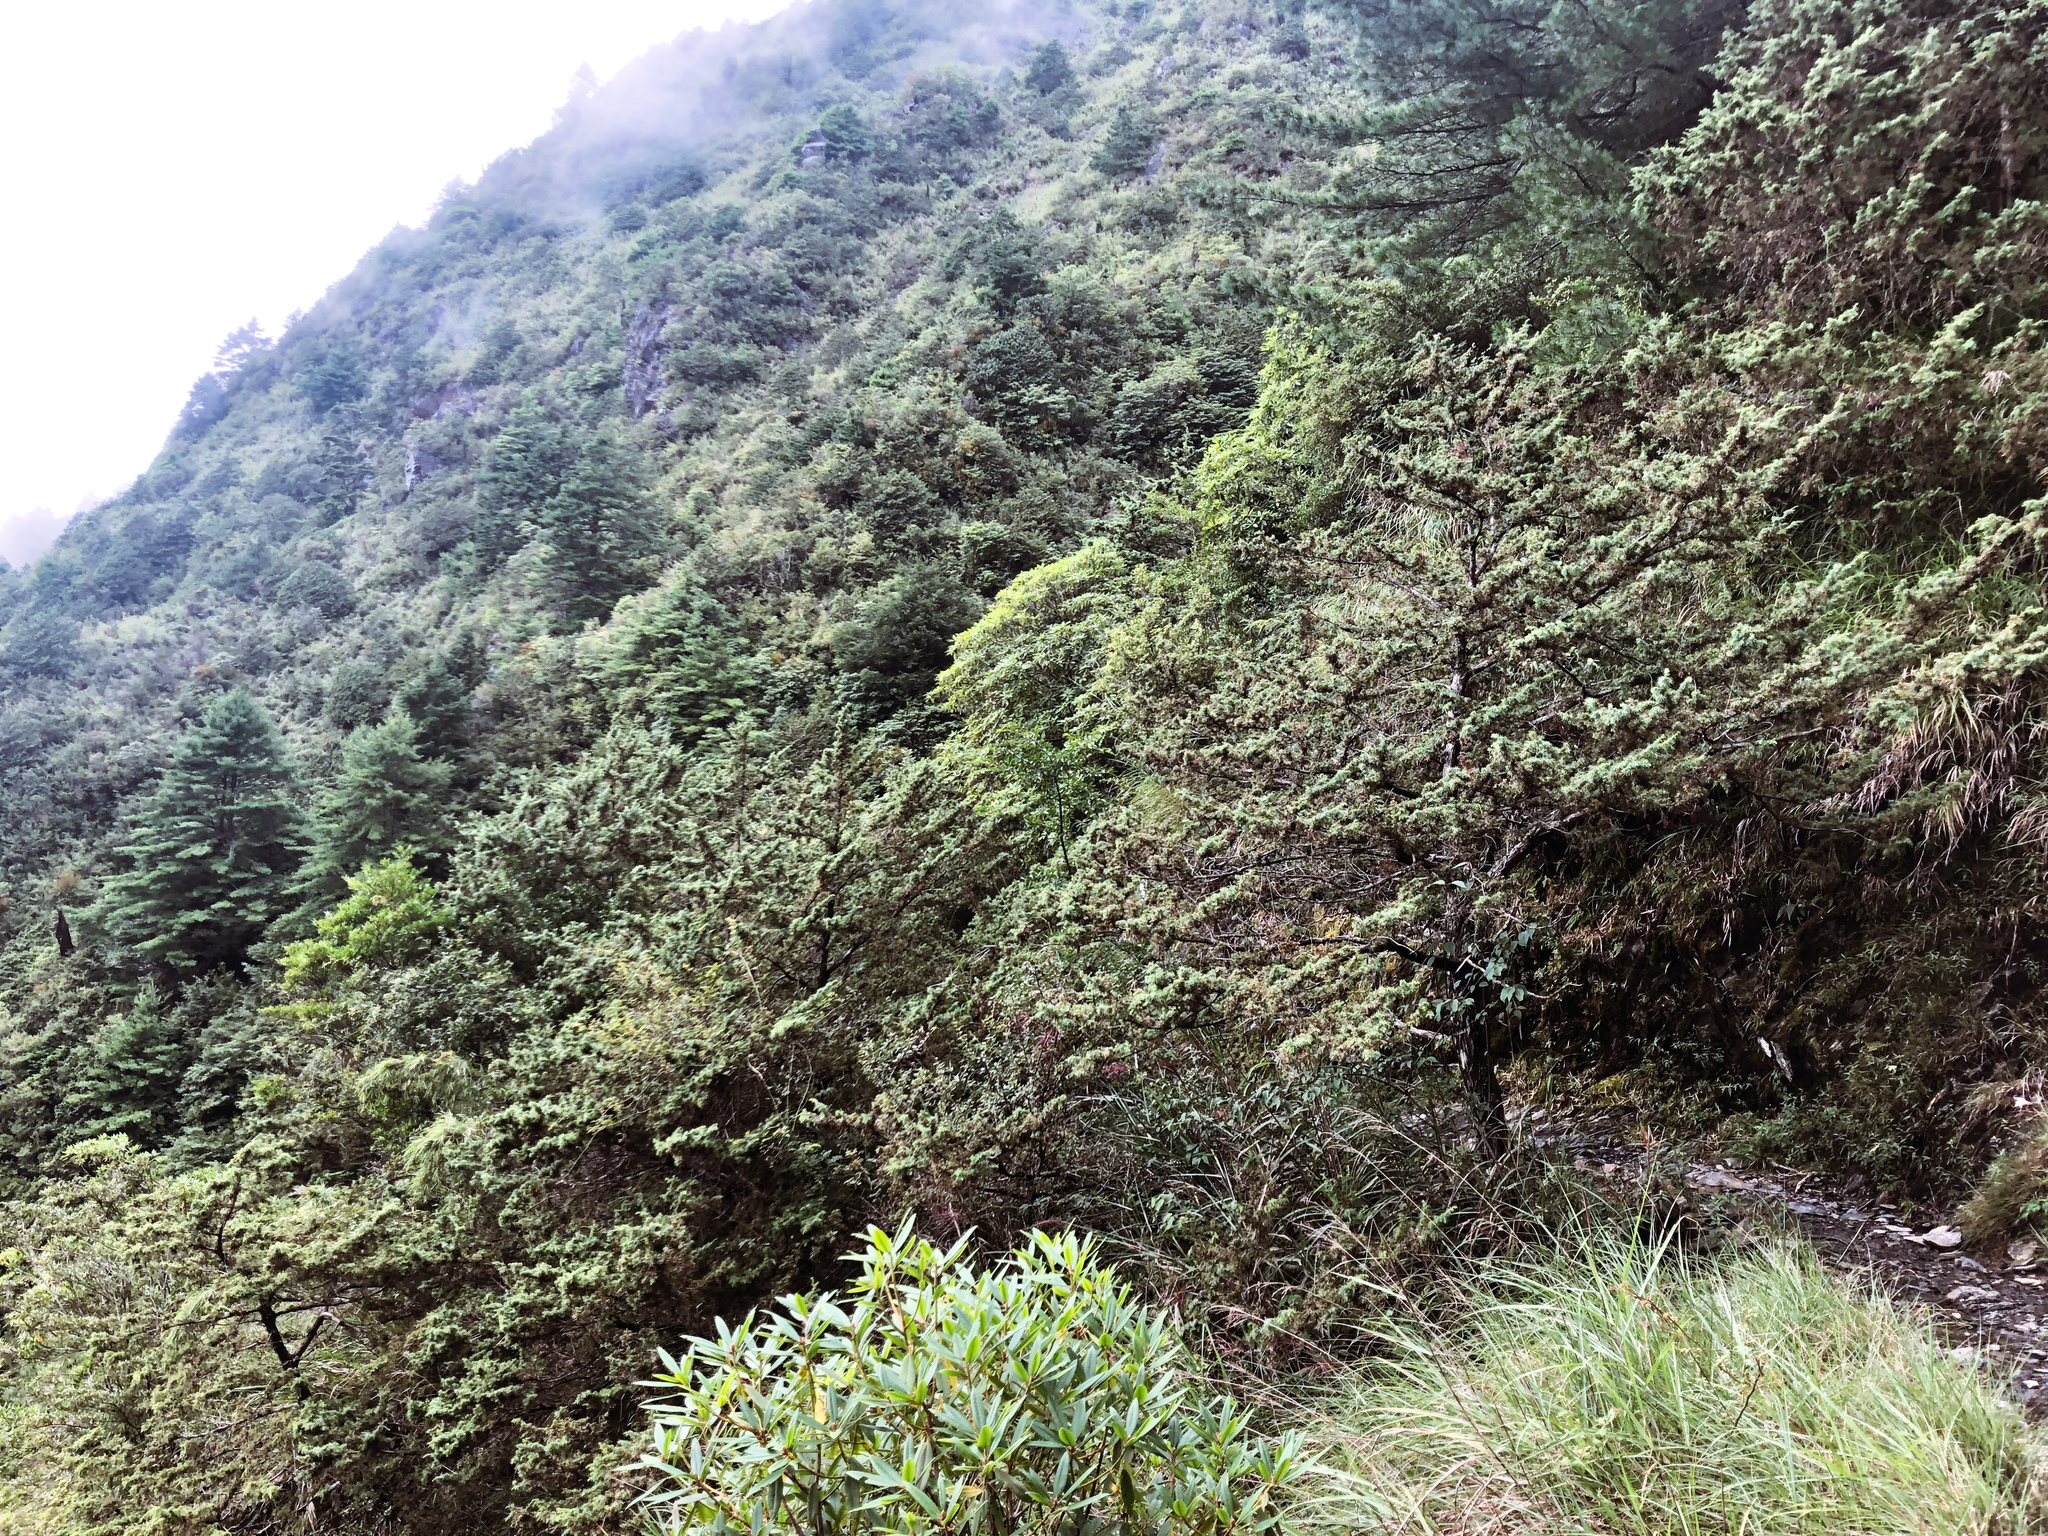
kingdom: Plantae
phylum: Tracheophyta
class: Pinopsida
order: Pinales
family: Cupressaceae
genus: Juniperus
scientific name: Juniperus formosana
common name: Formosan juniper
